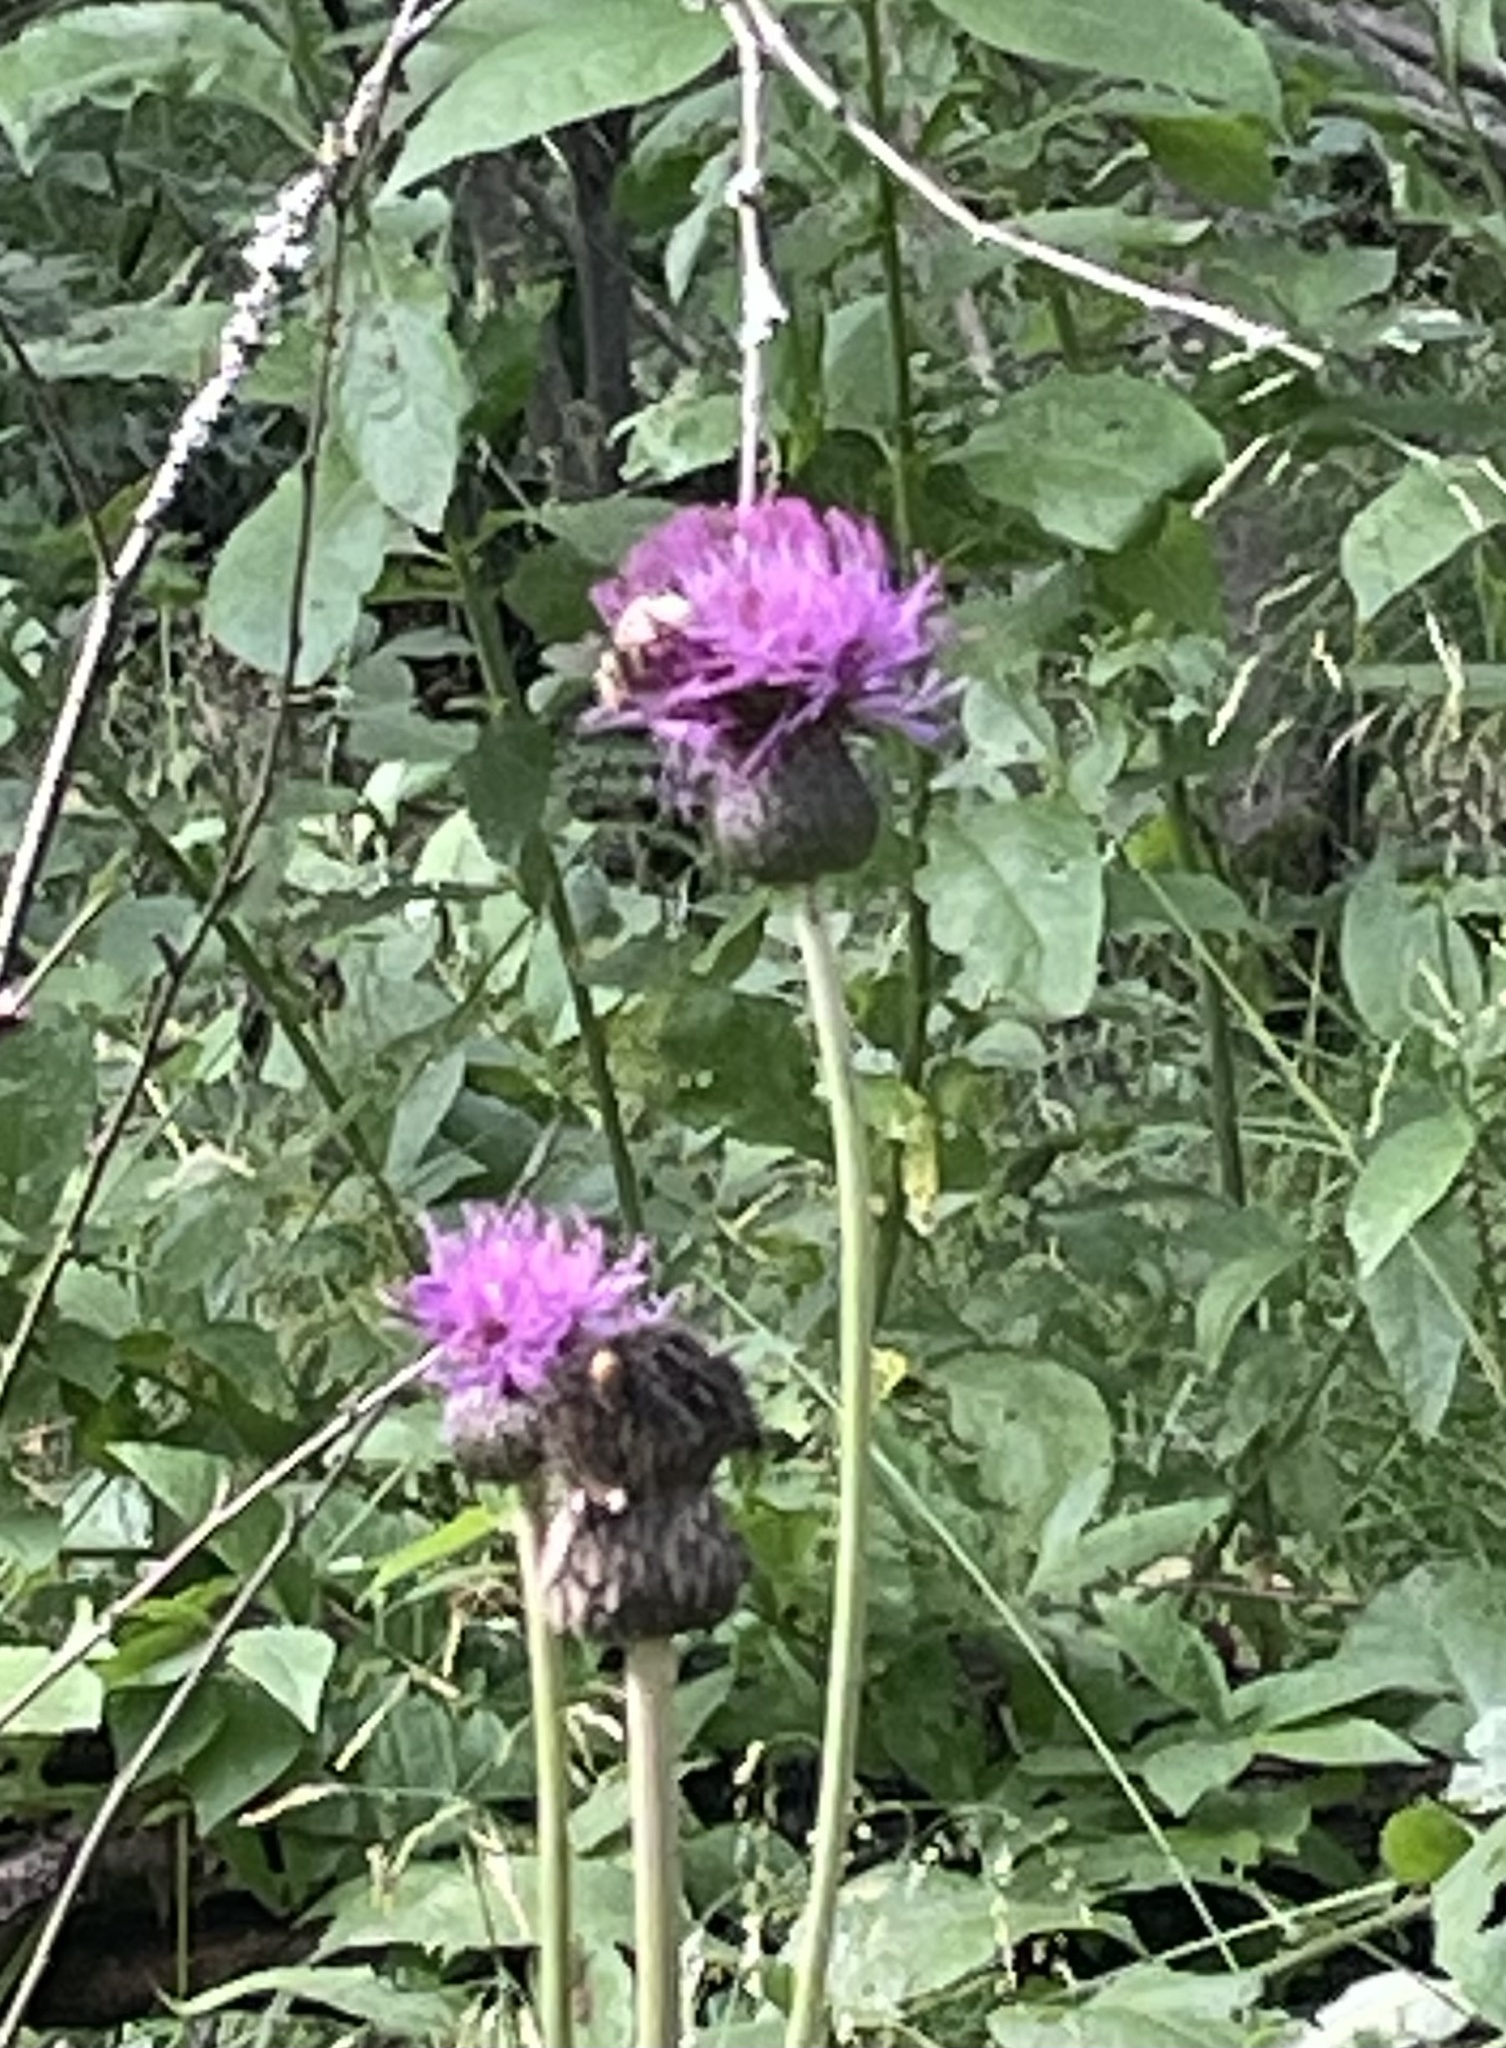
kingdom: Plantae
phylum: Tracheophyta
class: Magnoliopsida
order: Asterales
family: Asteraceae
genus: Cirsium
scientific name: Cirsium heterophyllum
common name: Melancholy thistle
